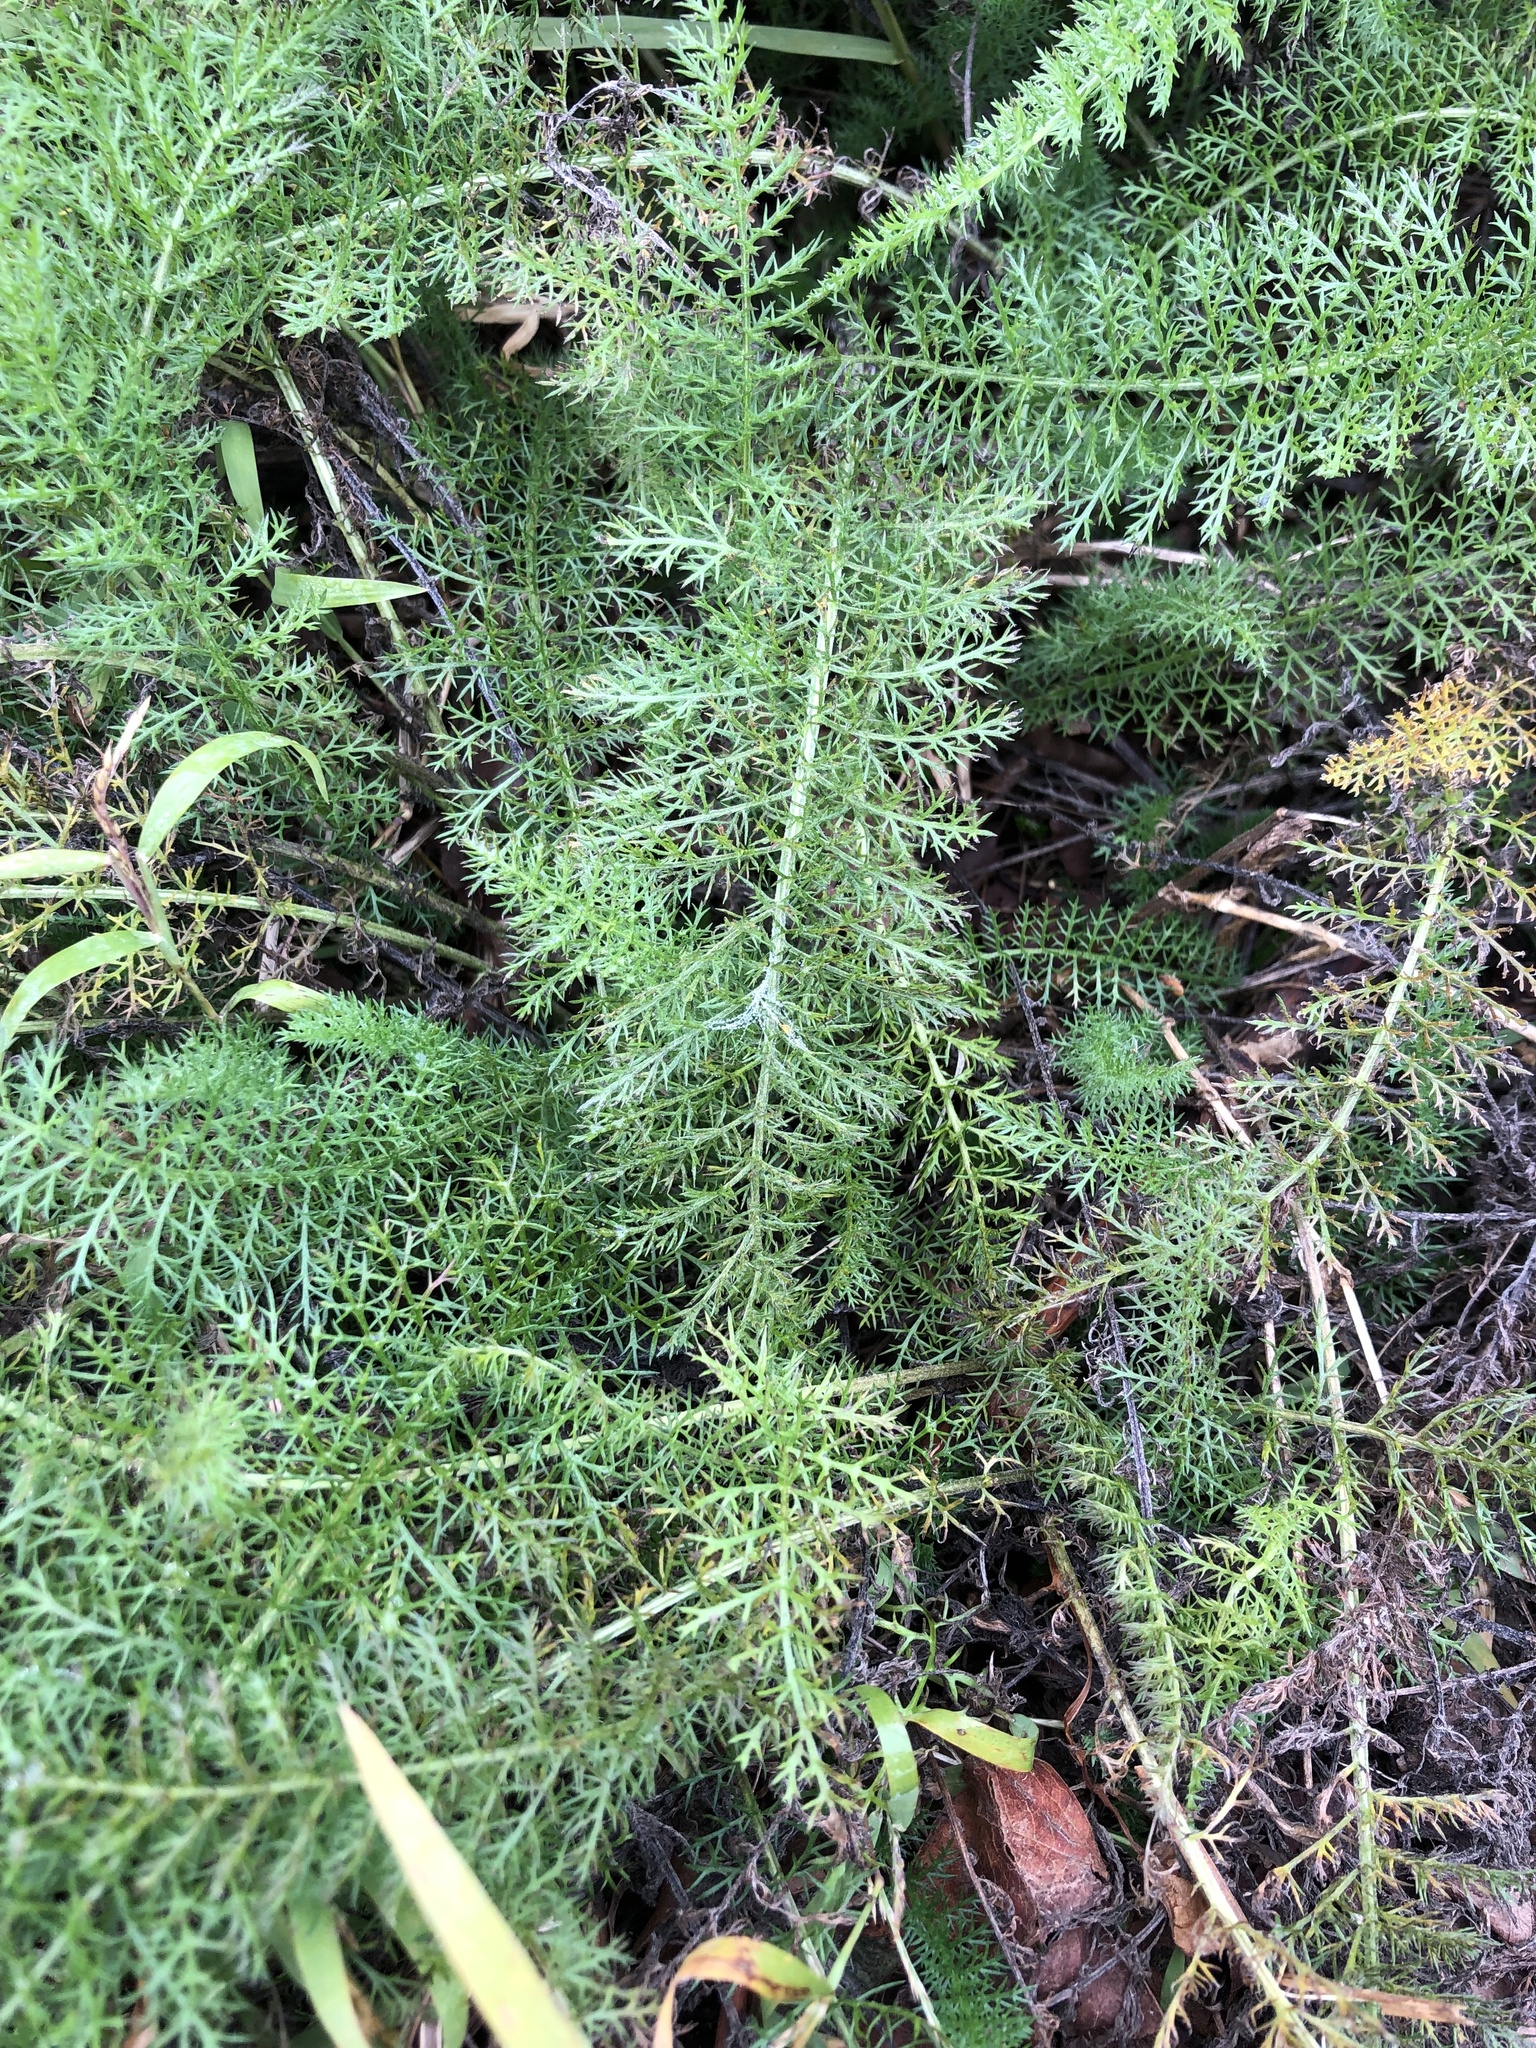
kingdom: Plantae
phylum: Tracheophyta
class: Magnoliopsida
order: Asterales
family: Asteraceae
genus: Achillea
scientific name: Achillea millefolium
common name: Yarrow
